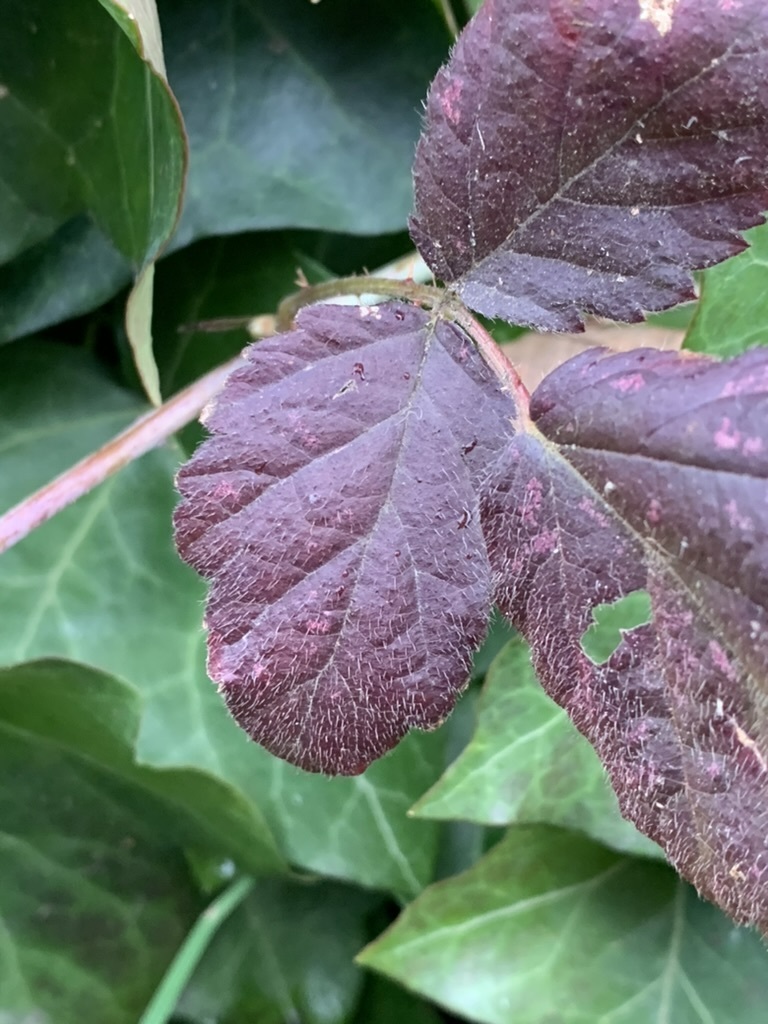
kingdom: Plantae
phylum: Tracheophyta
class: Magnoliopsida
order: Rosales
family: Rosaceae
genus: Rubus
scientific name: Rubus ursinus
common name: Pacific blackberry
